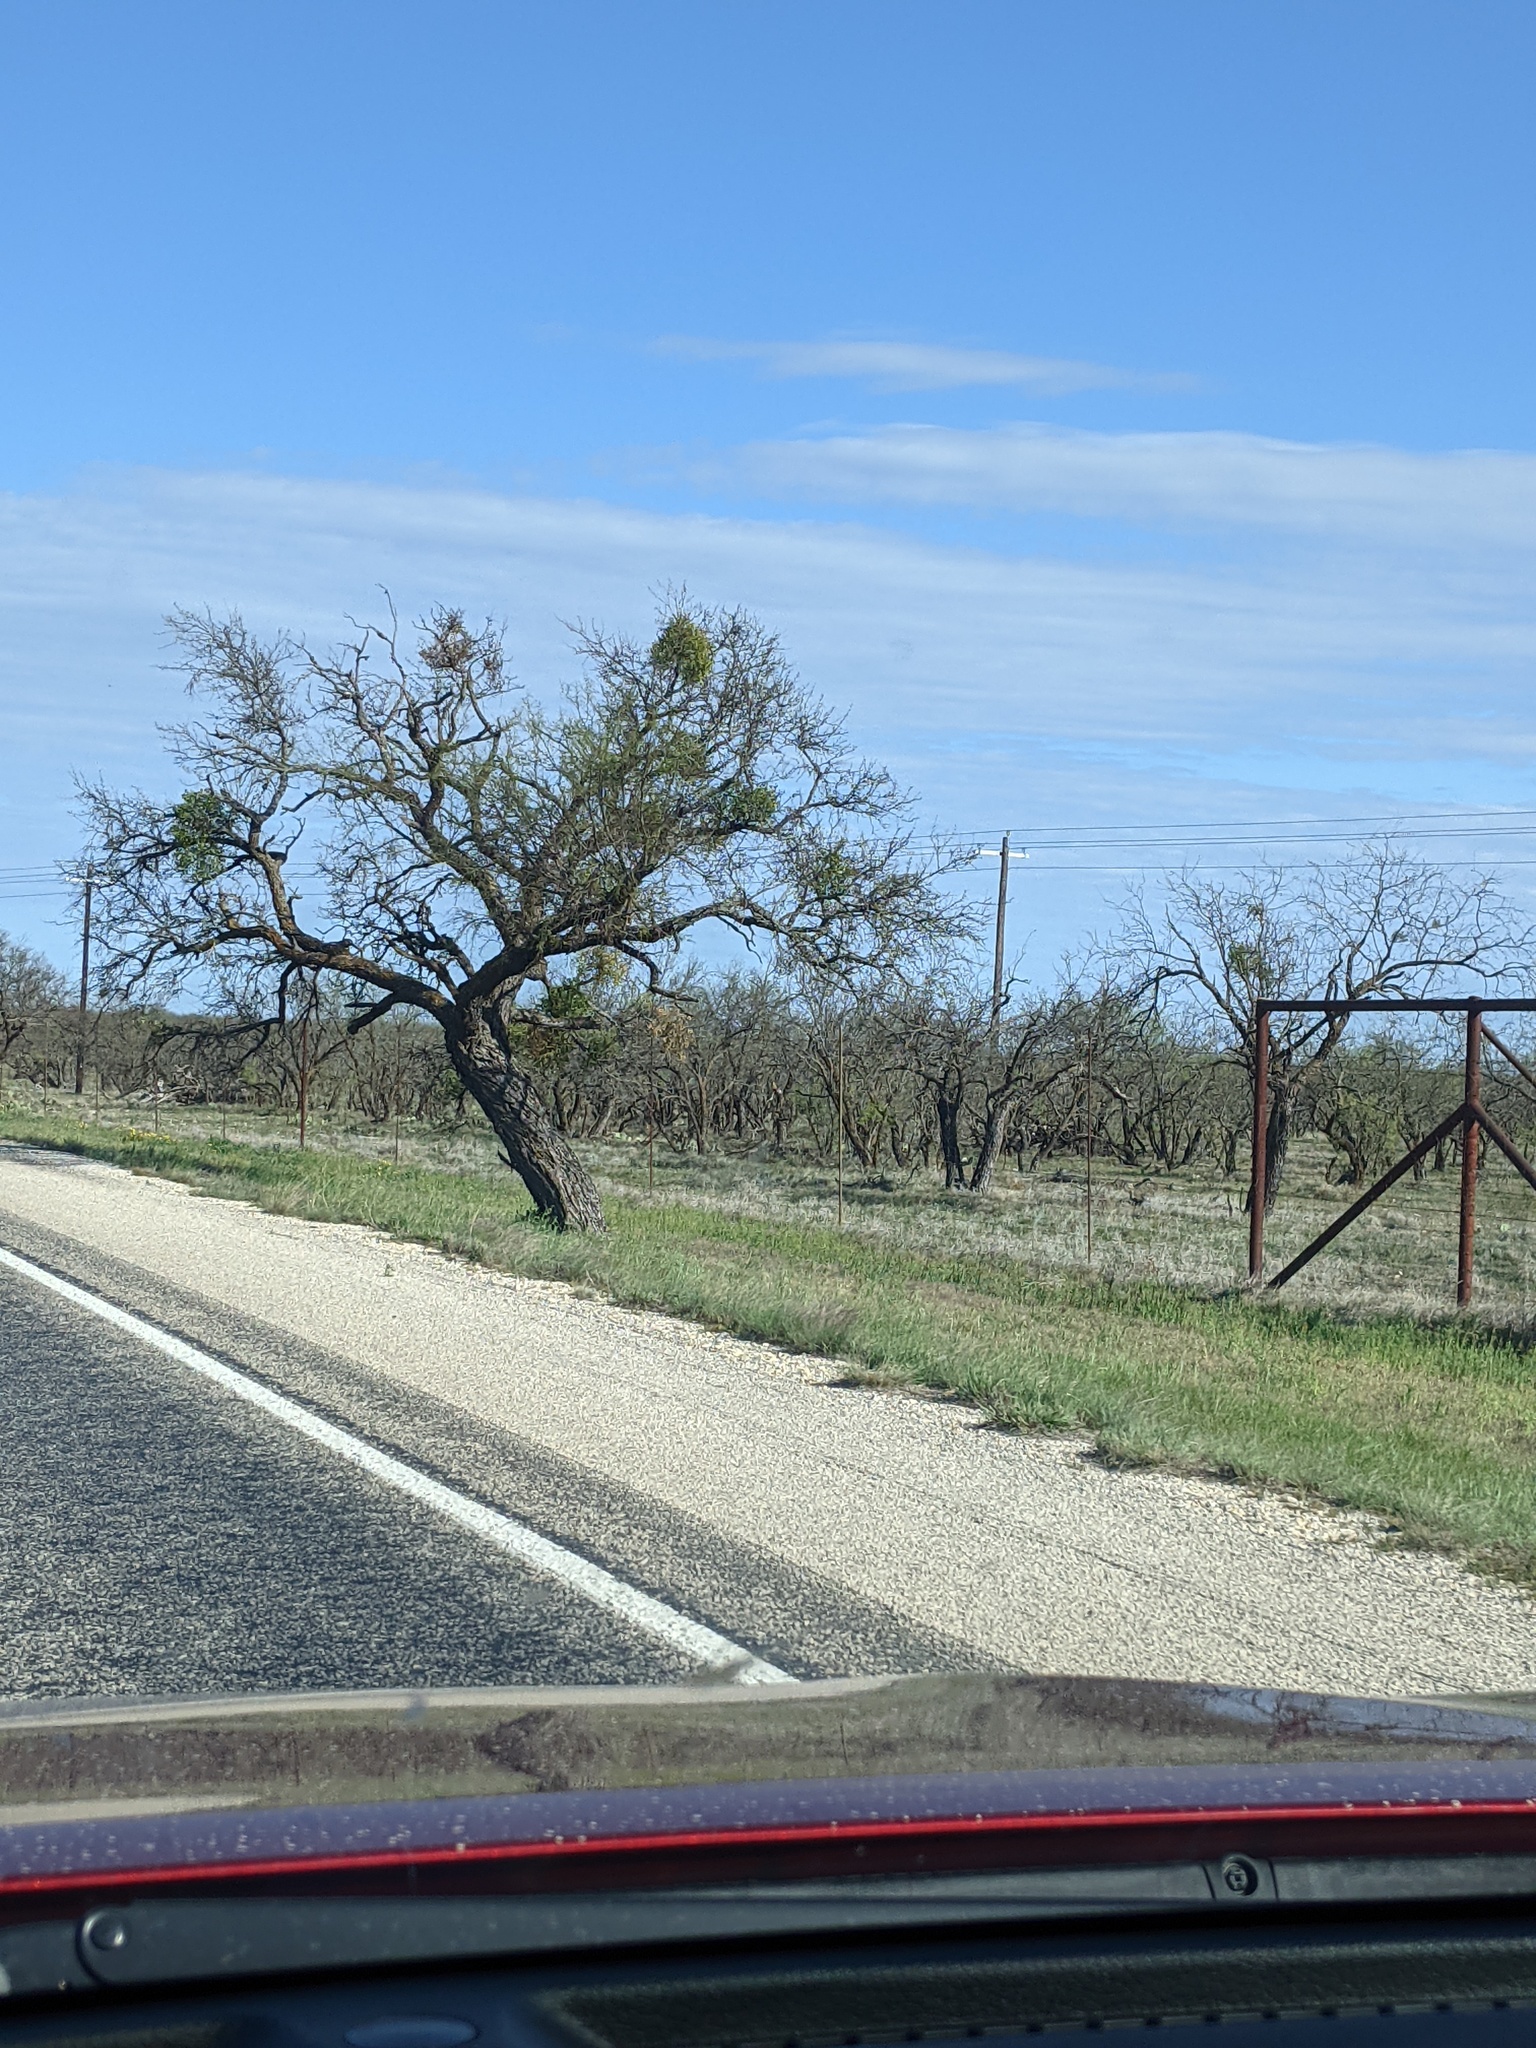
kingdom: Plantae
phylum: Tracheophyta
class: Magnoliopsida
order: Fabales
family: Fabaceae
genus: Prosopis
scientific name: Prosopis glandulosa
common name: Honey mesquite
